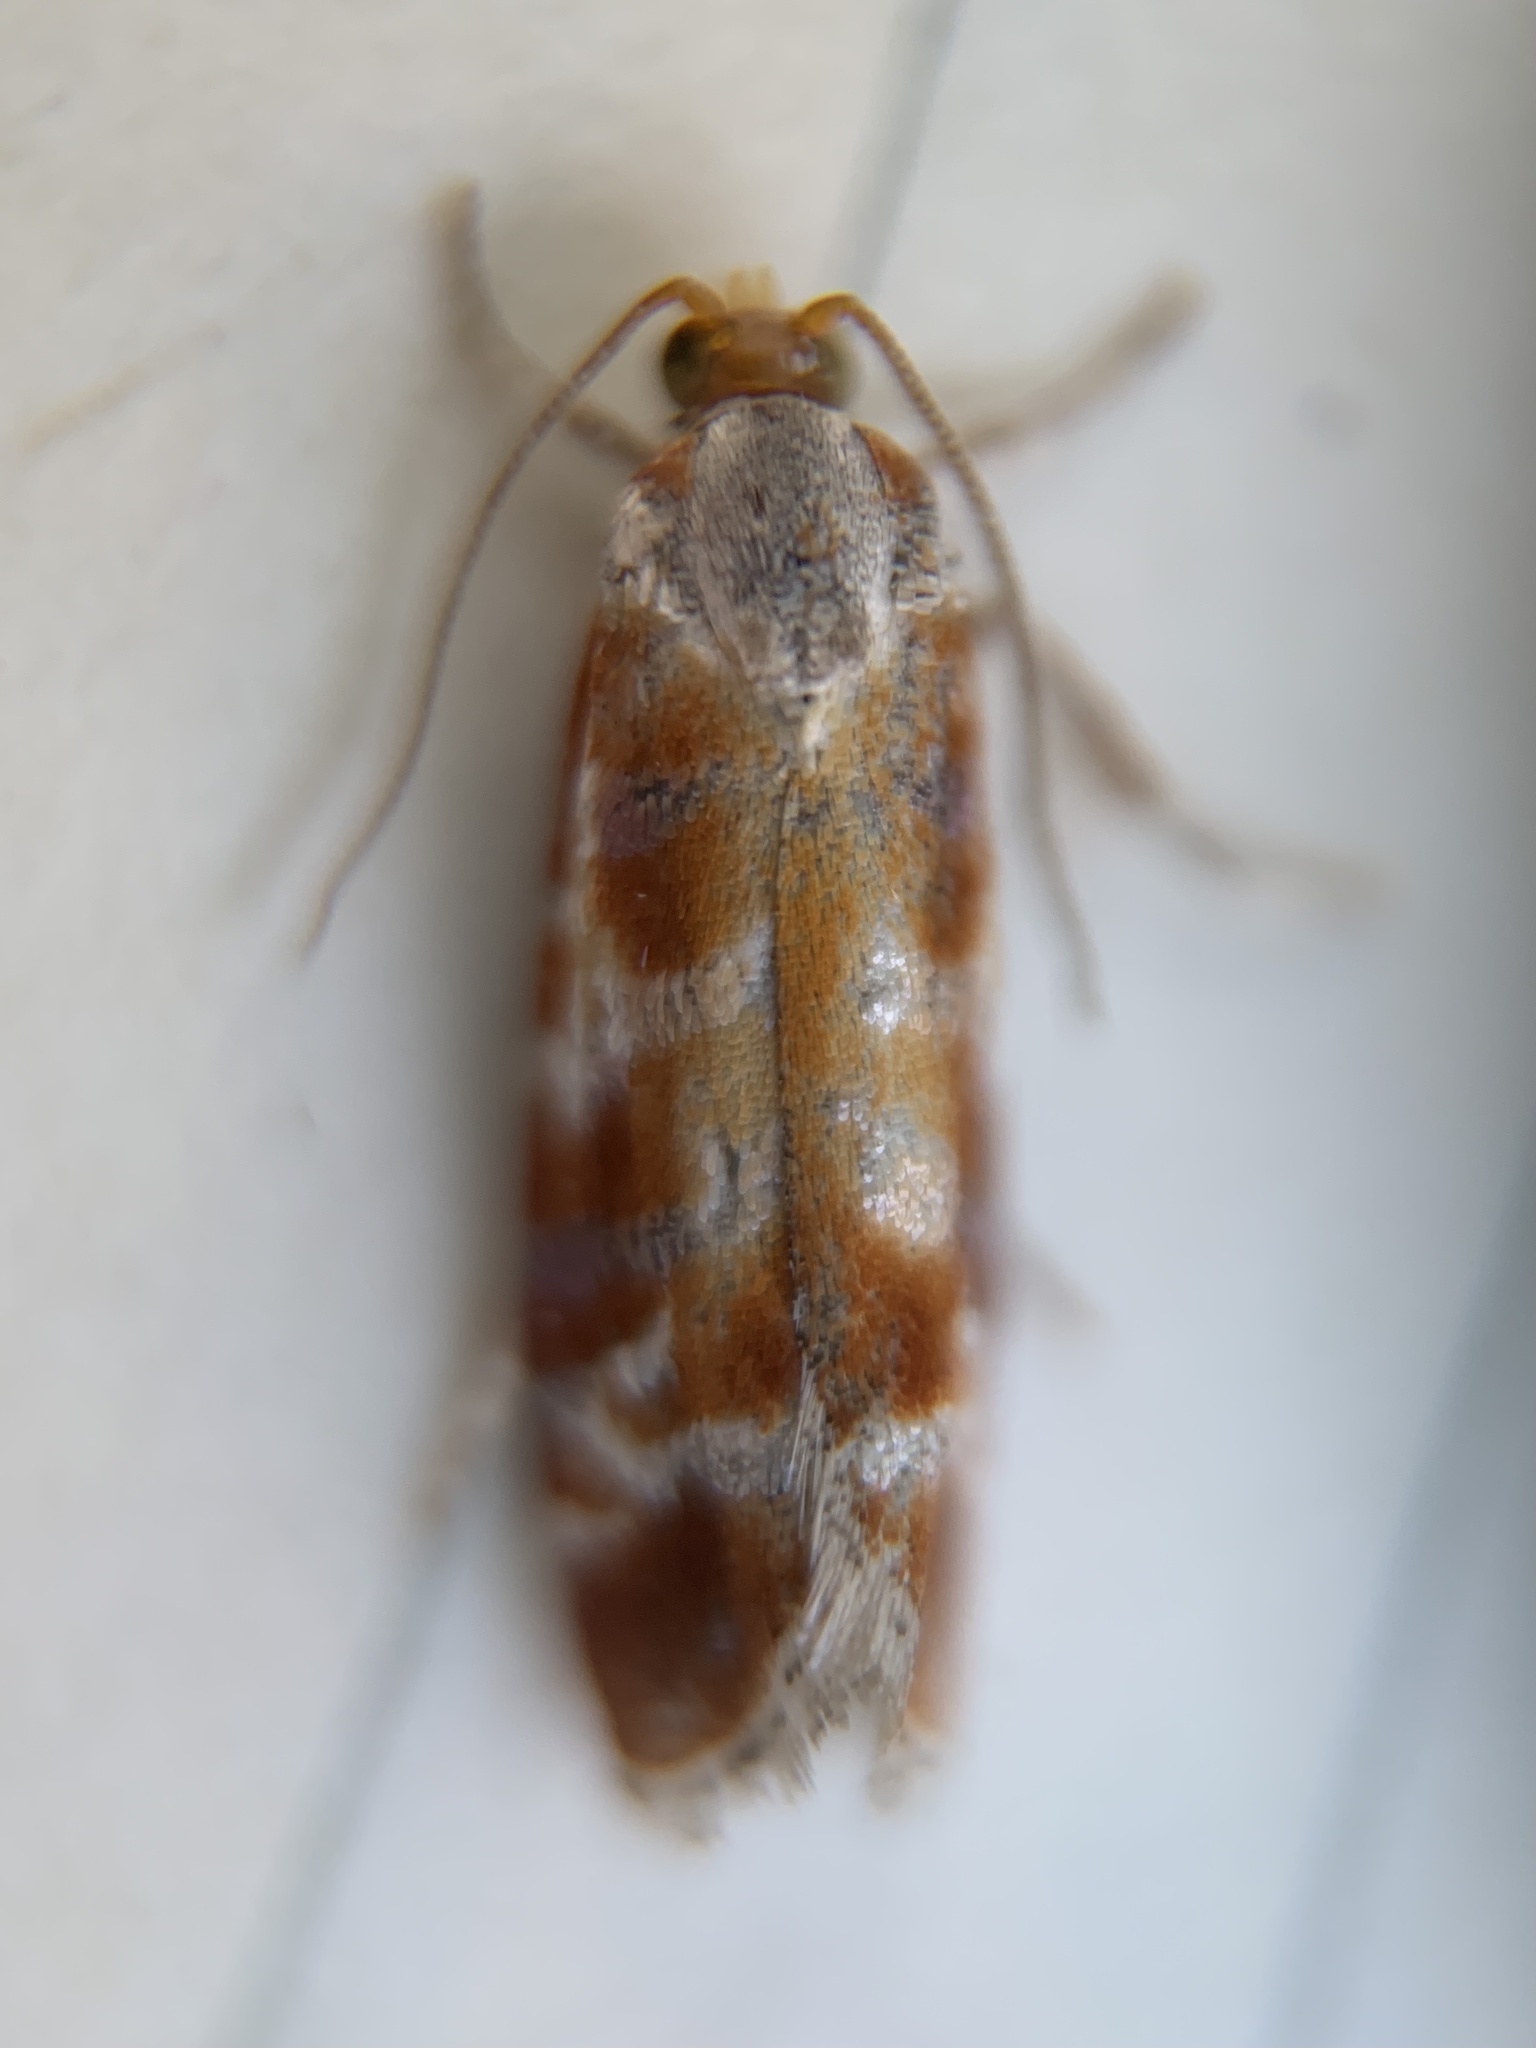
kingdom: Animalia
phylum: Arthropoda
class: Insecta
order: Lepidoptera
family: Tortricidae
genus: Rhyacionia
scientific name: Rhyacionia buoliana
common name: European pine shoot moth
